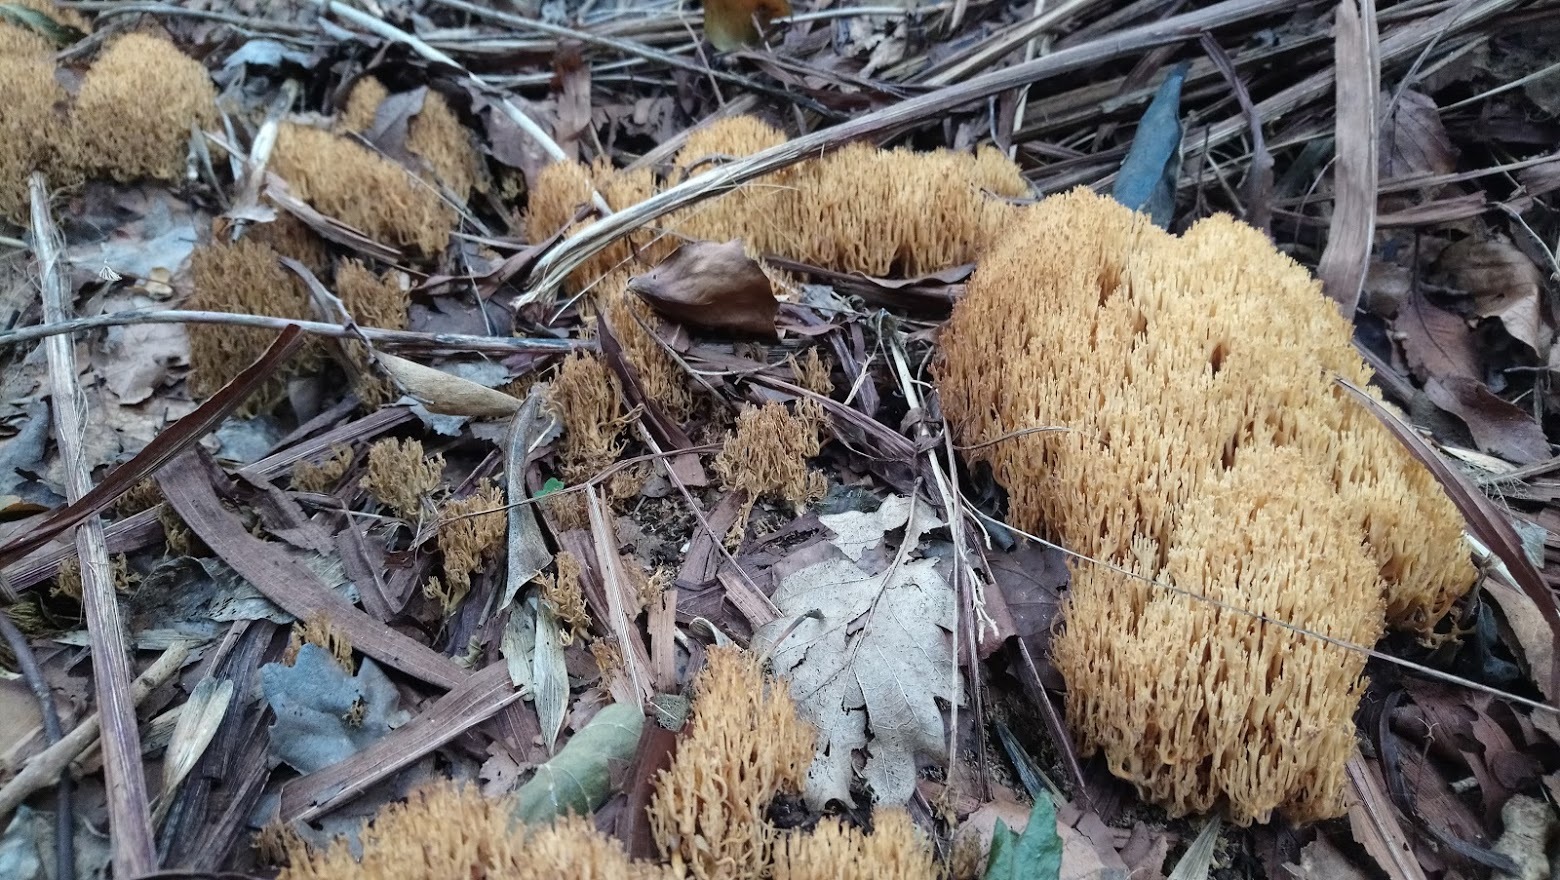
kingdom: Fungi
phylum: Basidiomycota
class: Agaricomycetes
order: Gomphales
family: Gomphaceae
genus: Ramaria
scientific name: Ramaria stricta
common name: Upright coral
